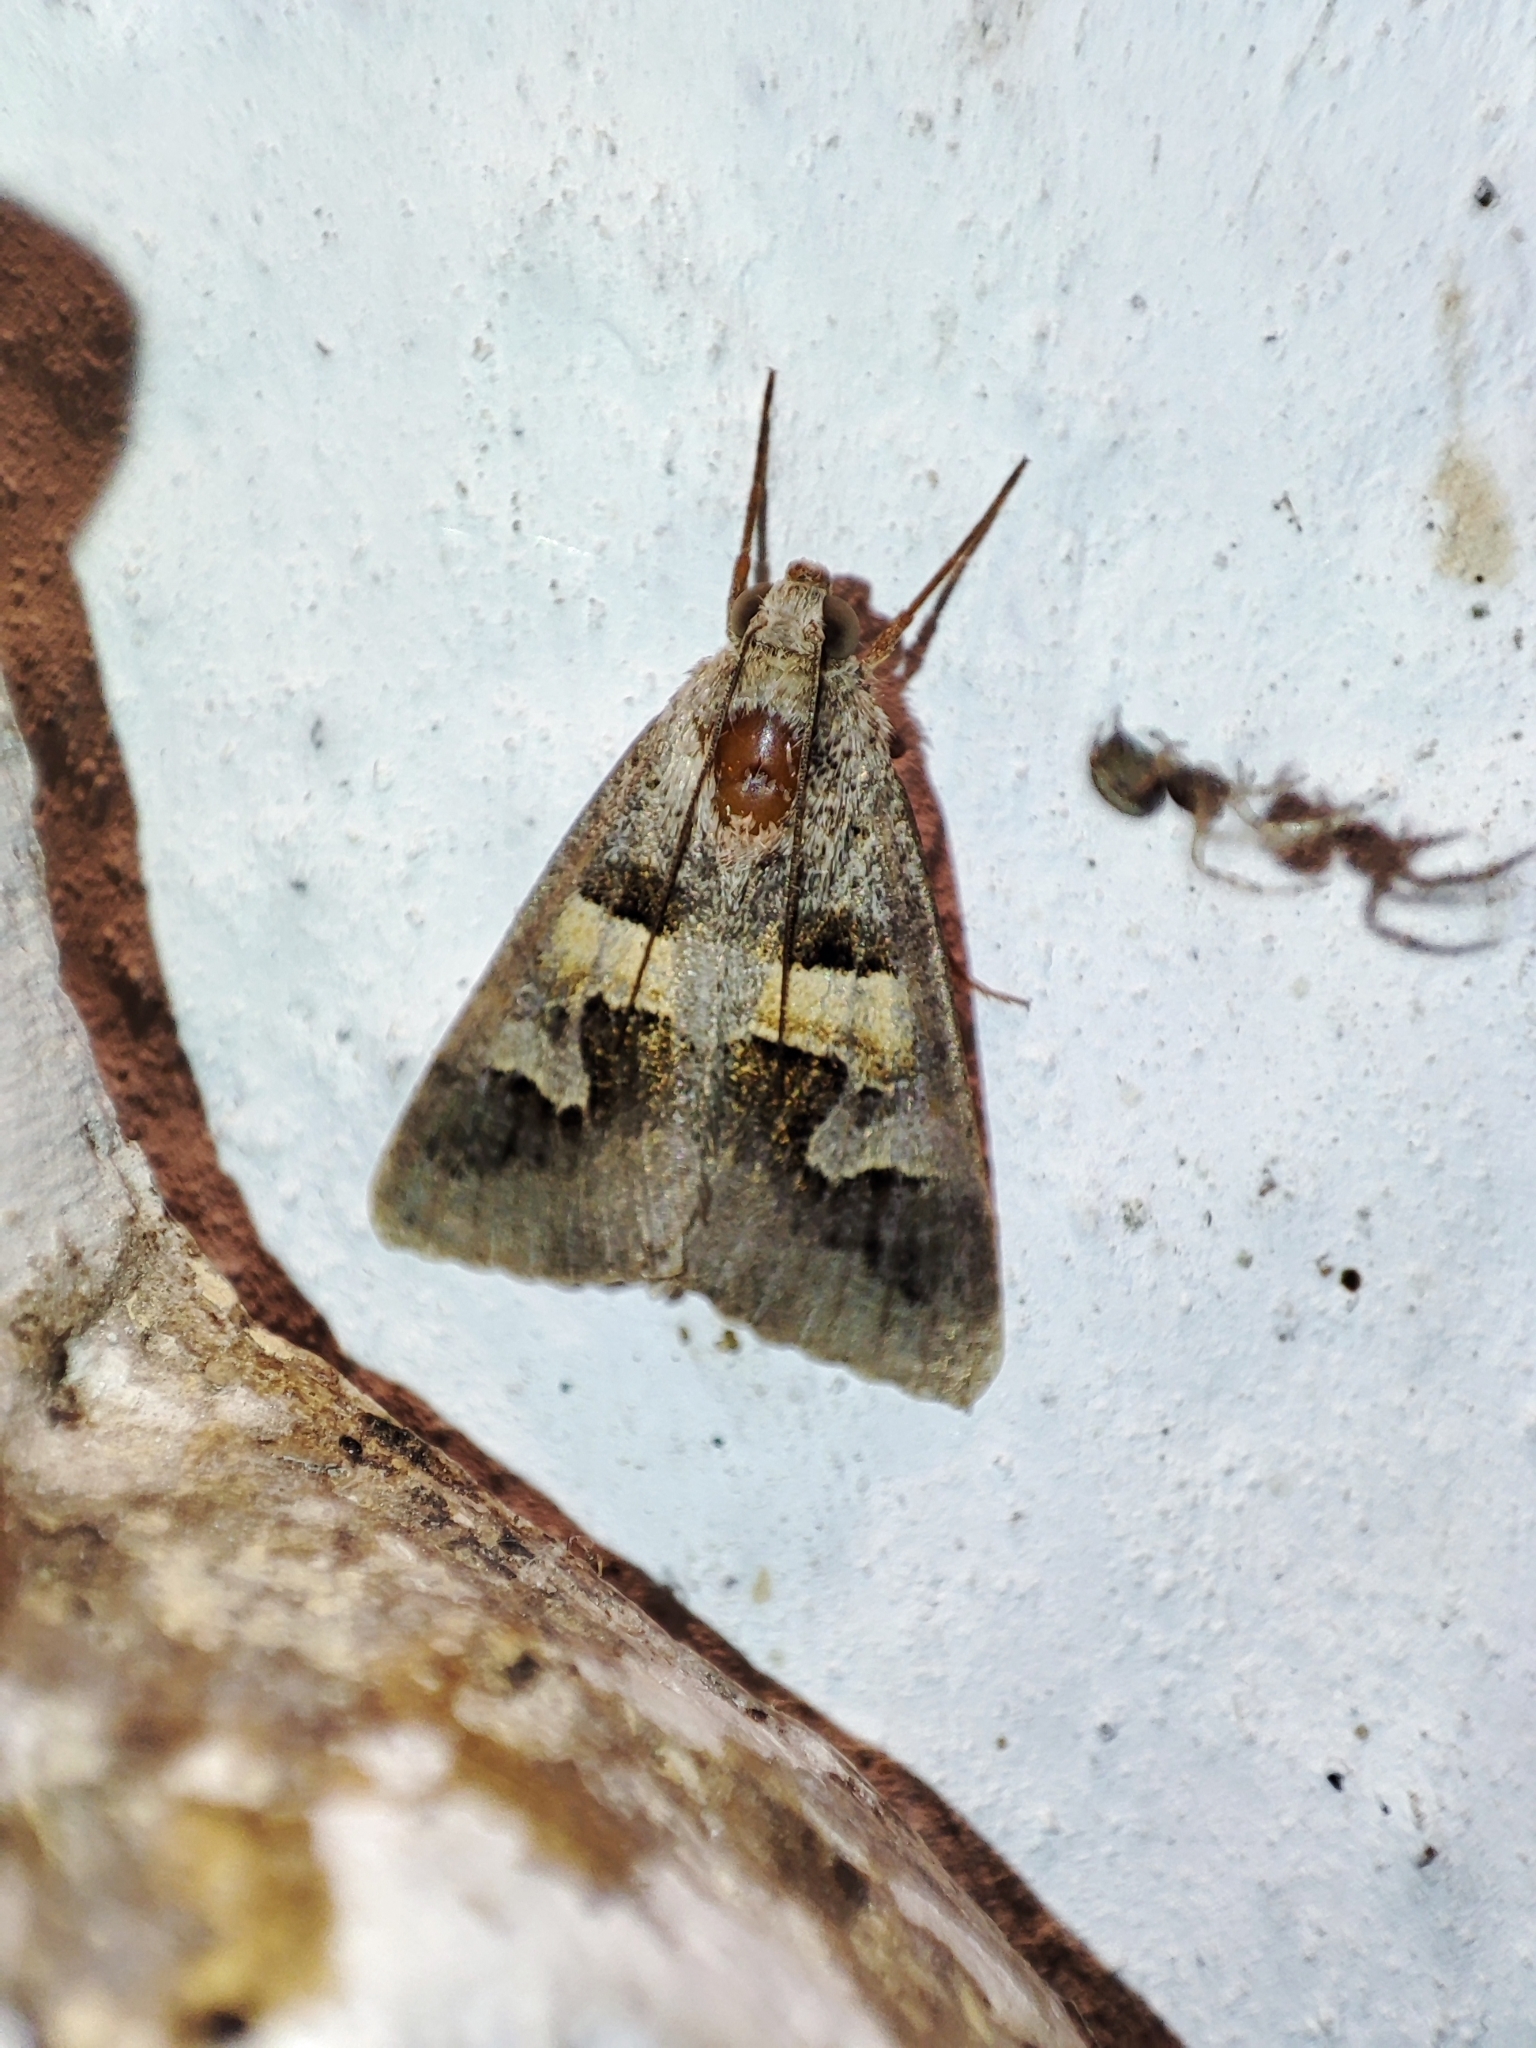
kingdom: Animalia
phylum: Arthropoda
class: Insecta
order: Lepidoptera
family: Erebidae
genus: Drasteria
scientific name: Drasteria caucasica
